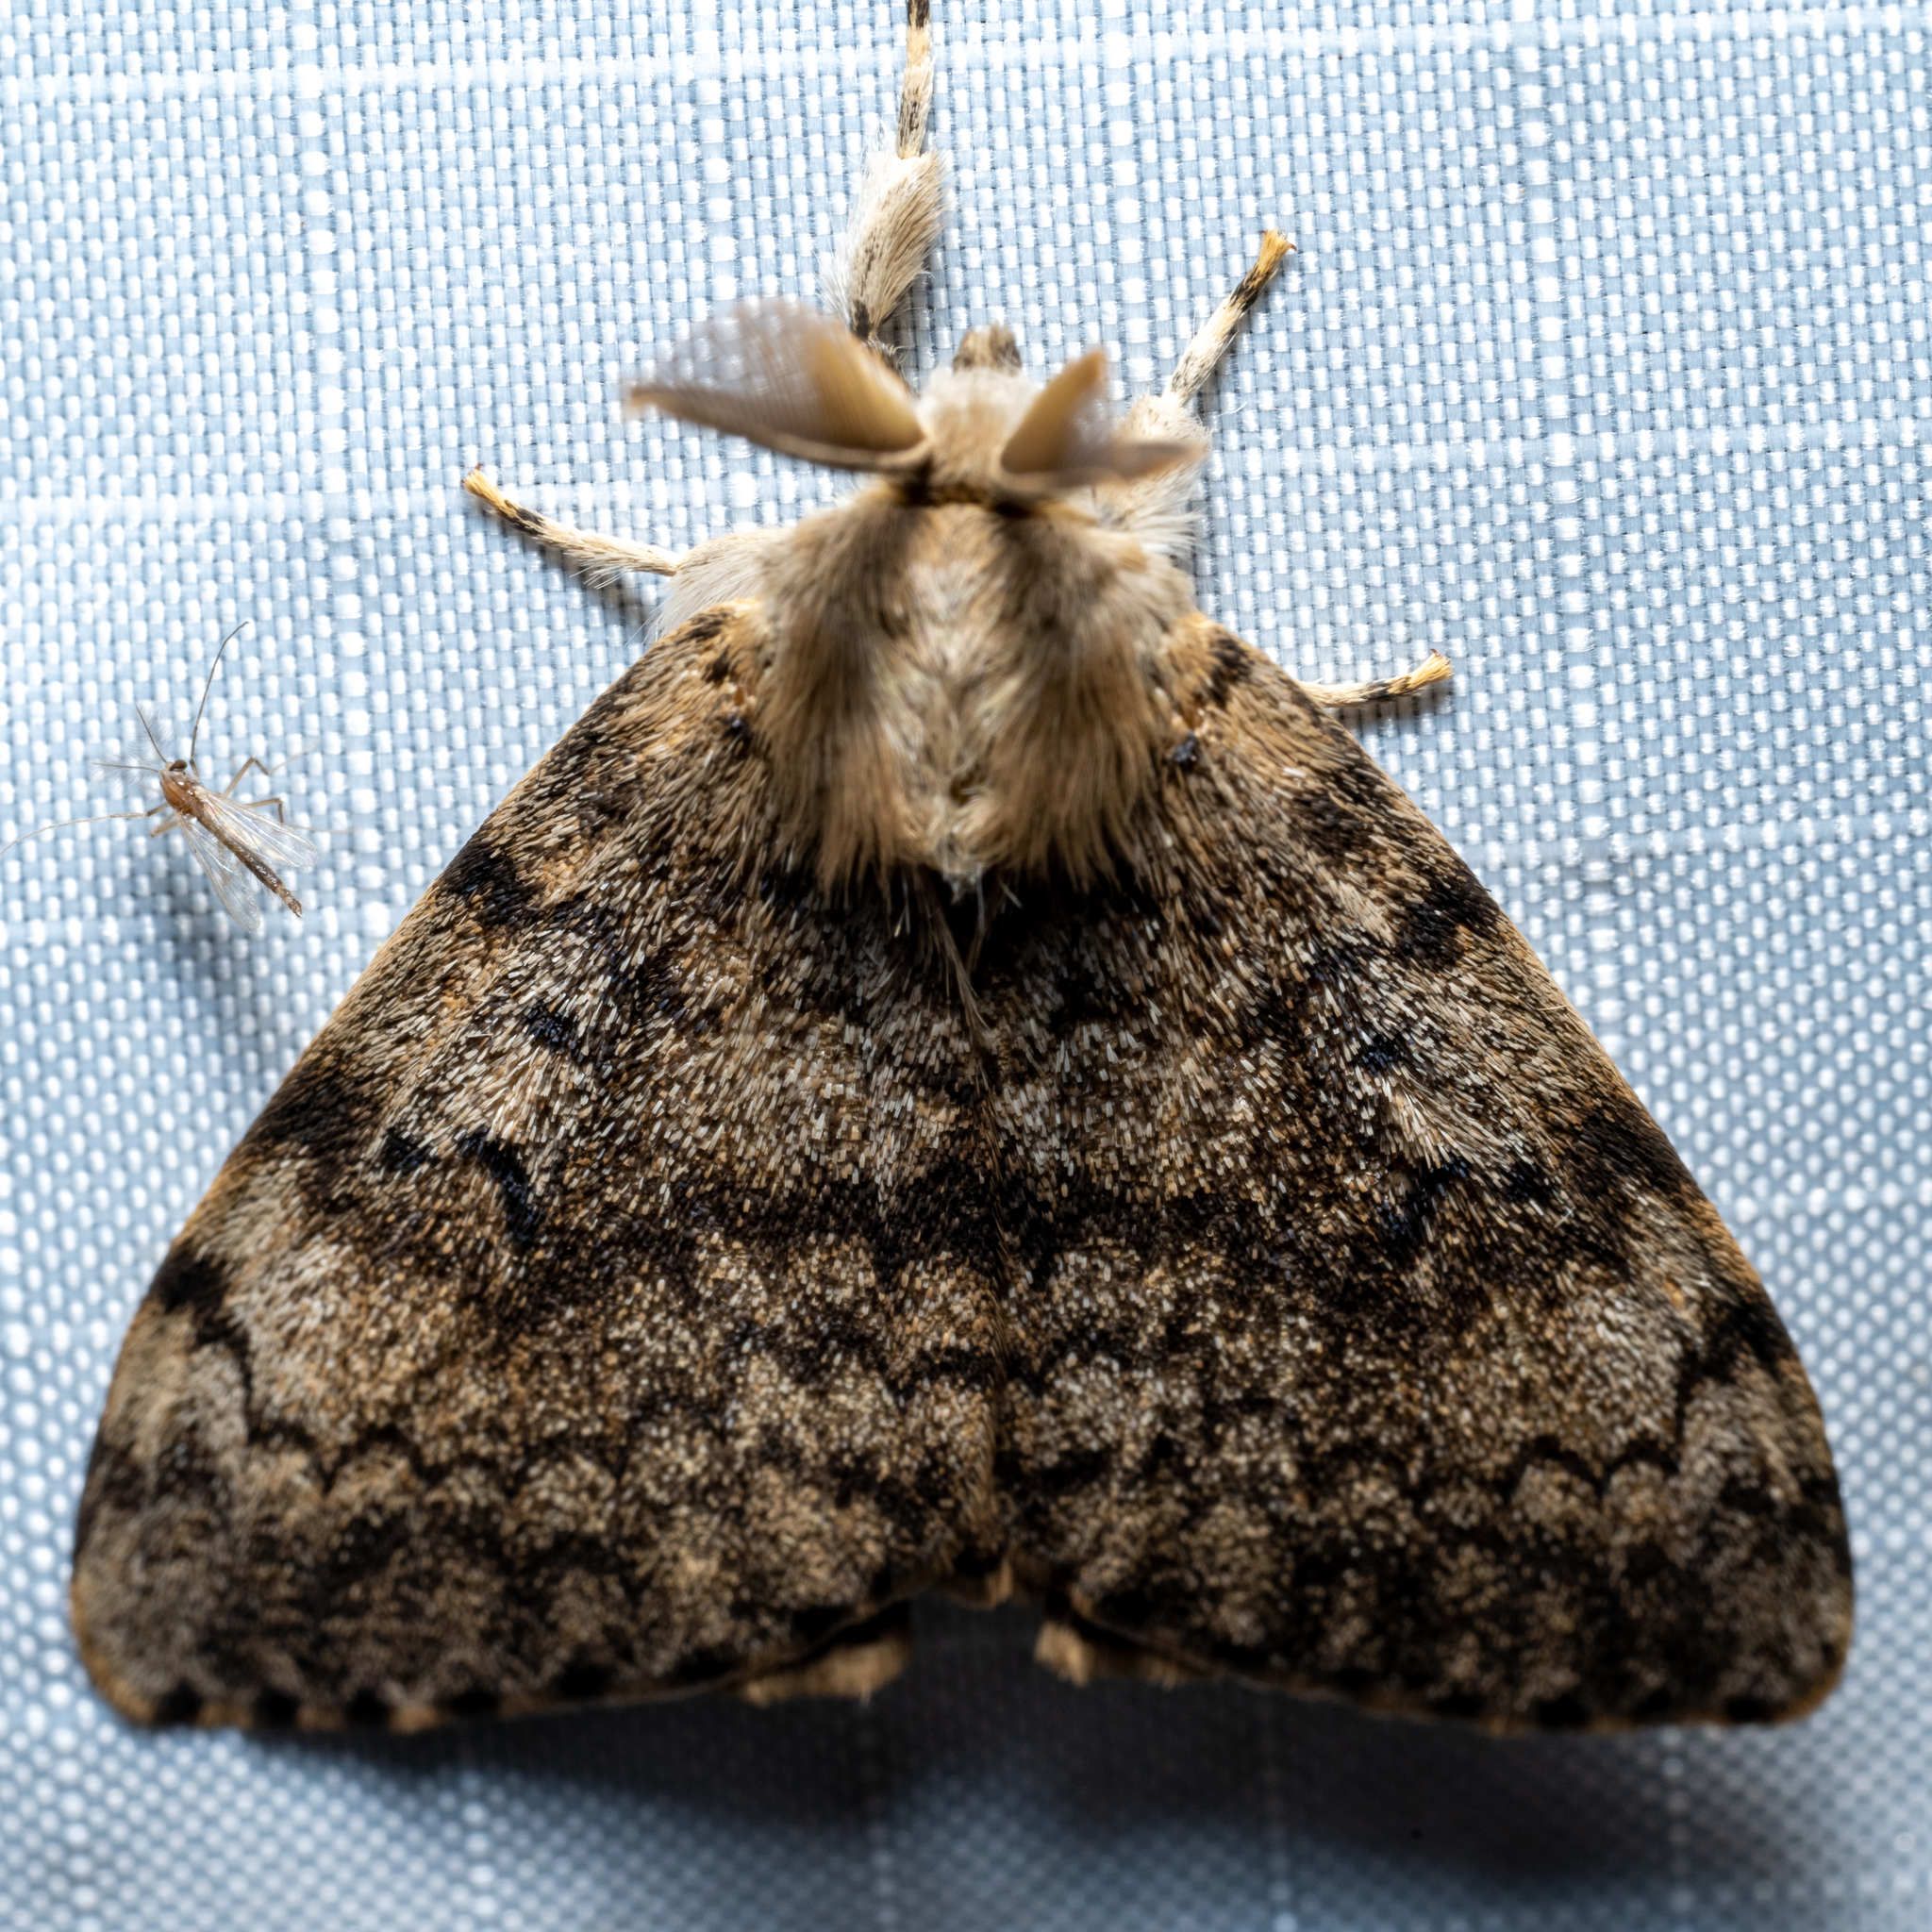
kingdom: Animalia
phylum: Arthropoda
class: Insecta
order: Lepidoptera
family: Erebidae
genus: Lymantria
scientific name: Lymantria dispar
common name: Gypsy moth
